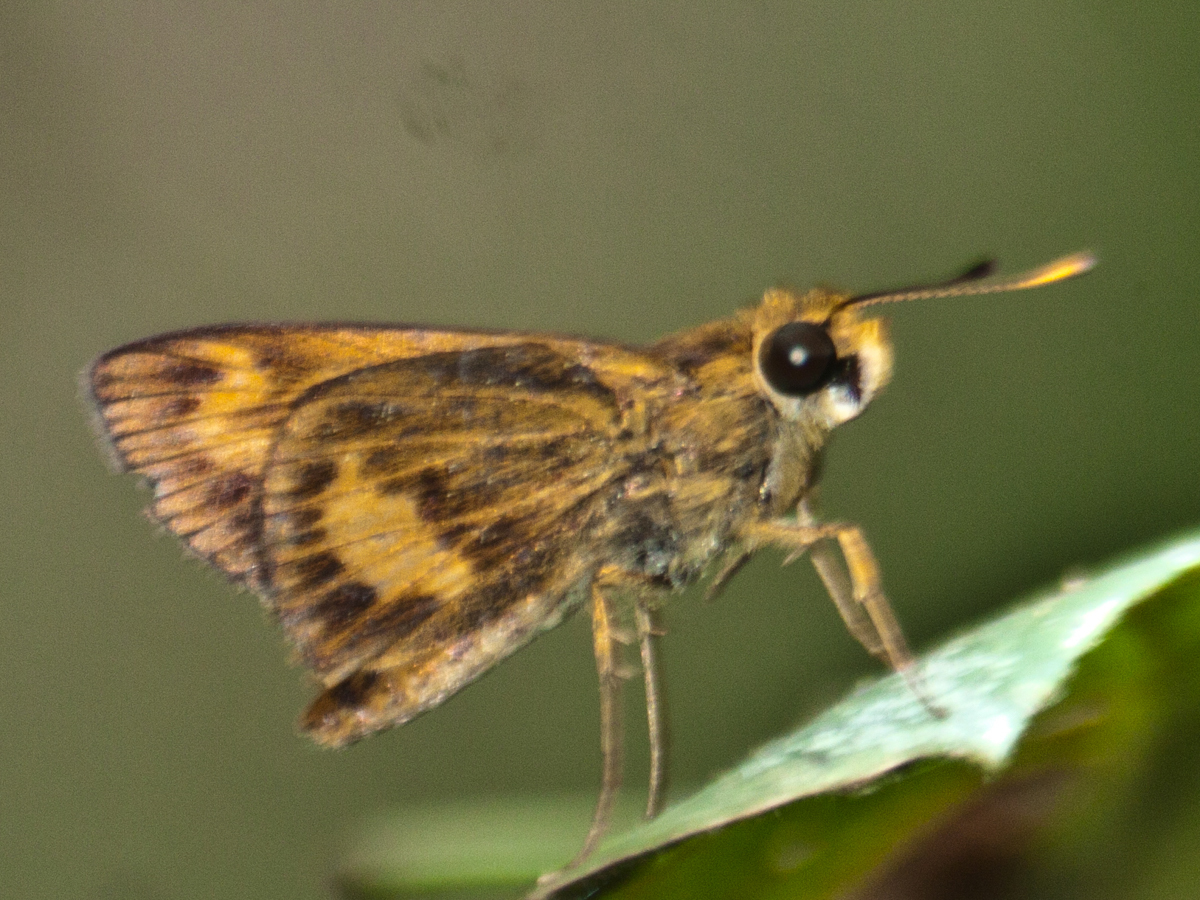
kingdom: Animalia
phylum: Arthropoda
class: Insecta
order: Lepidoptera
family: Hesperiidae
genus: Oriens
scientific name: Oriens gola
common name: Common dartlet
